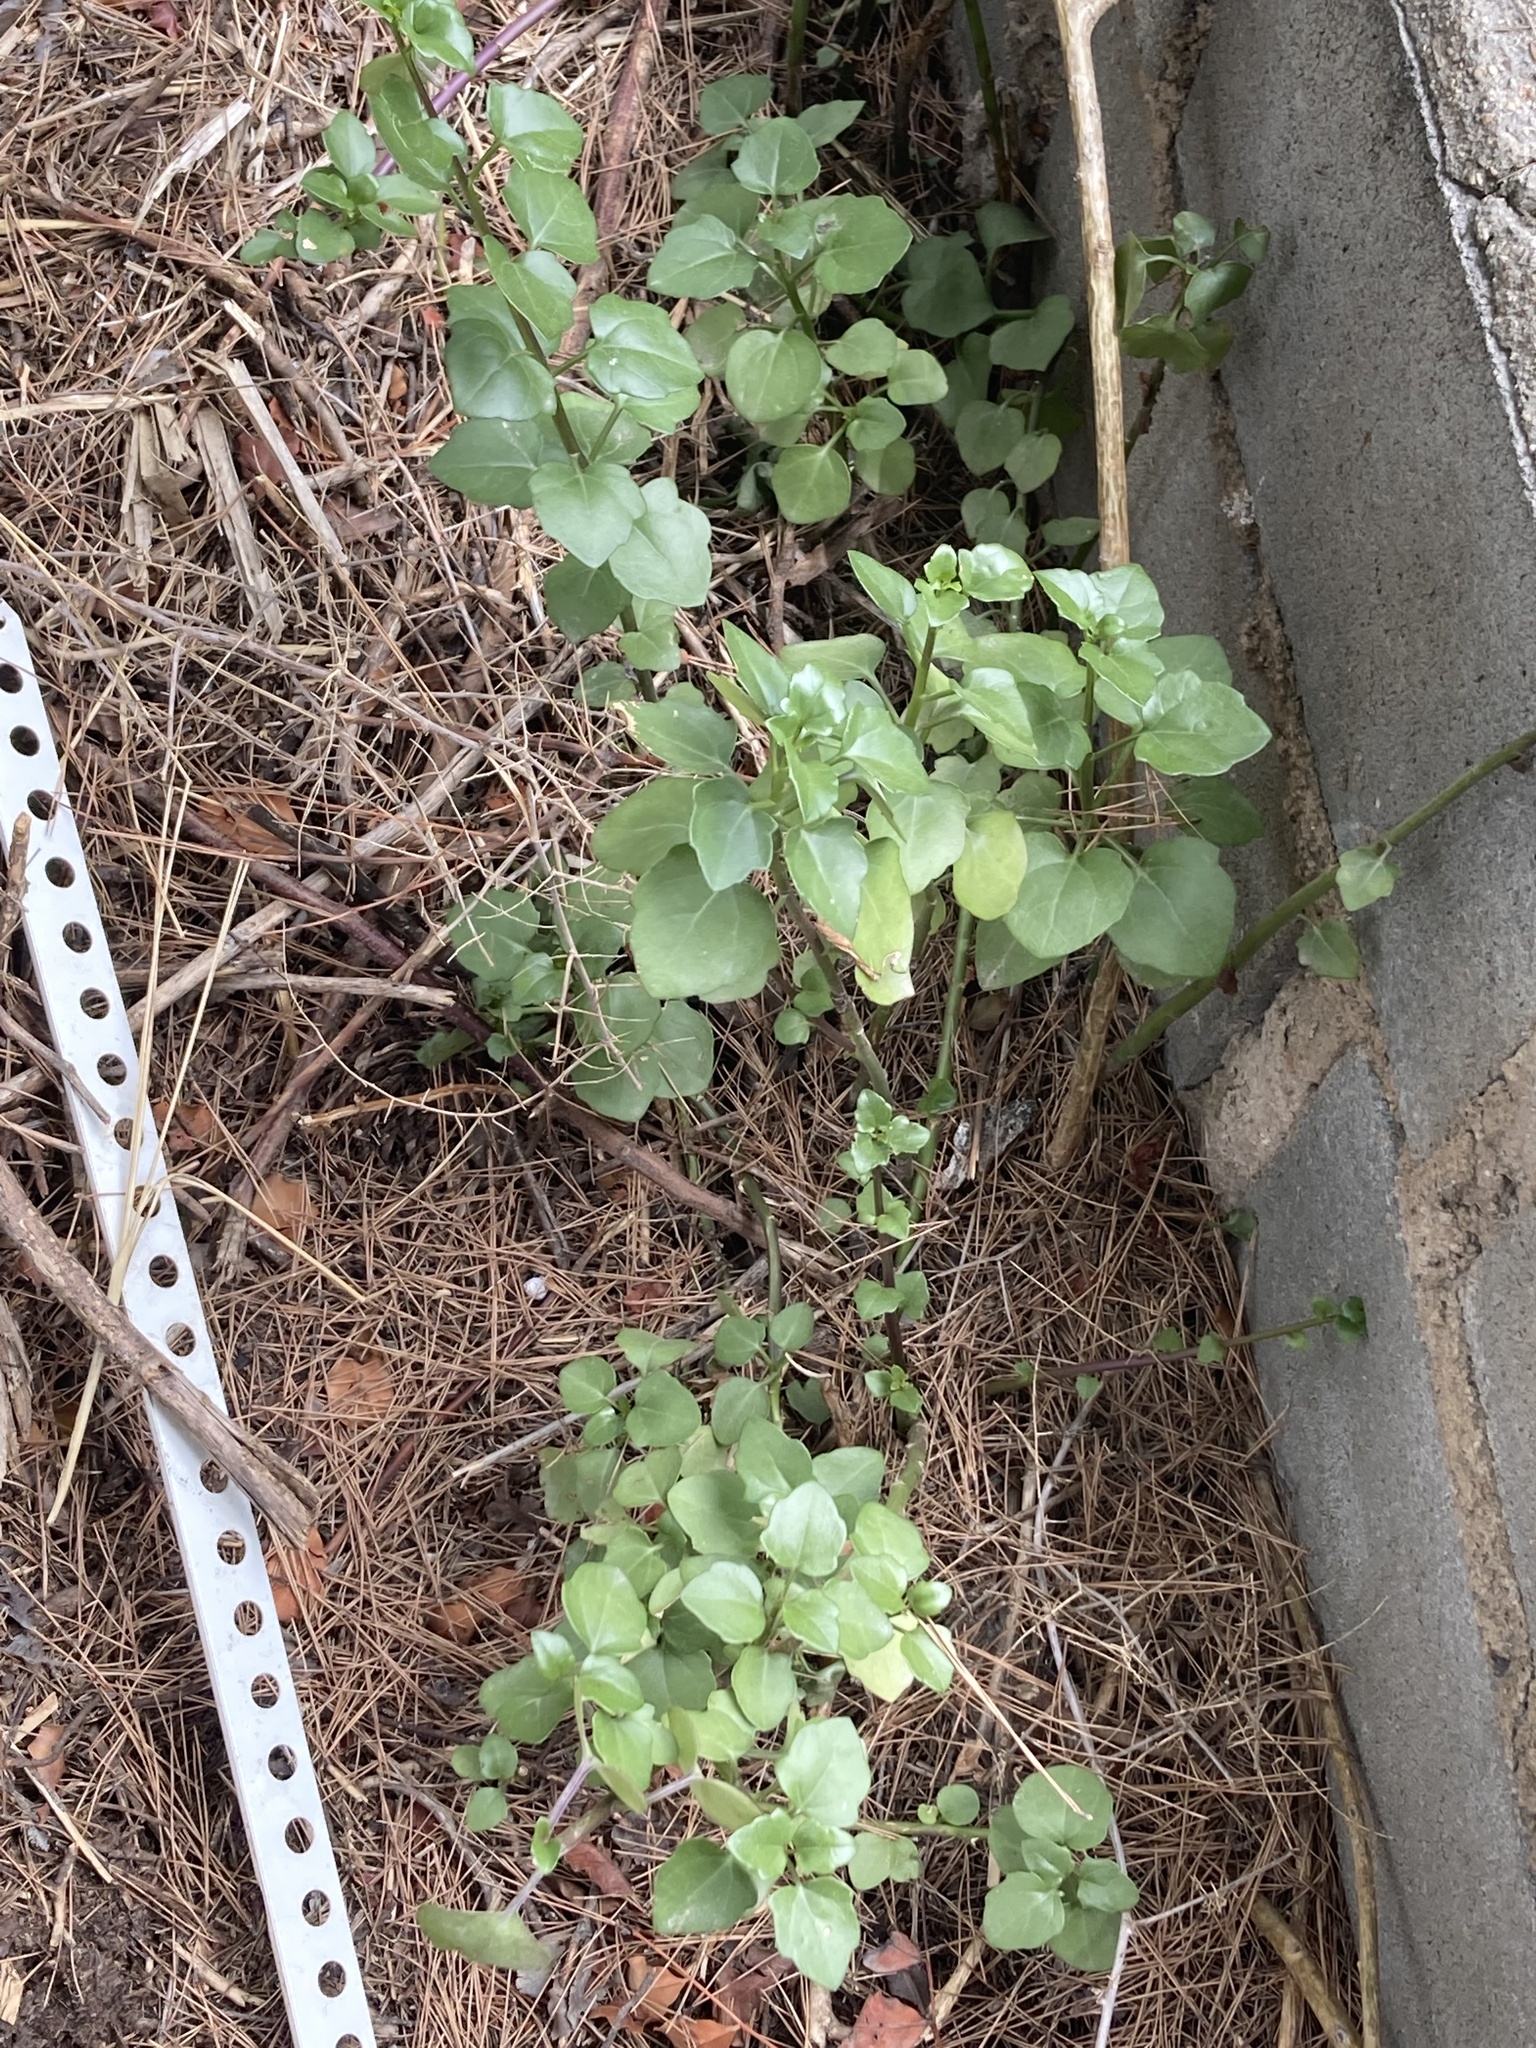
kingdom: Plantae
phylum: Tracheophyta
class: Magnoliopsida
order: Asterales
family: Asteraceae
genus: Senecio
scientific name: Senecio angulatus
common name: Climbing groundsel
